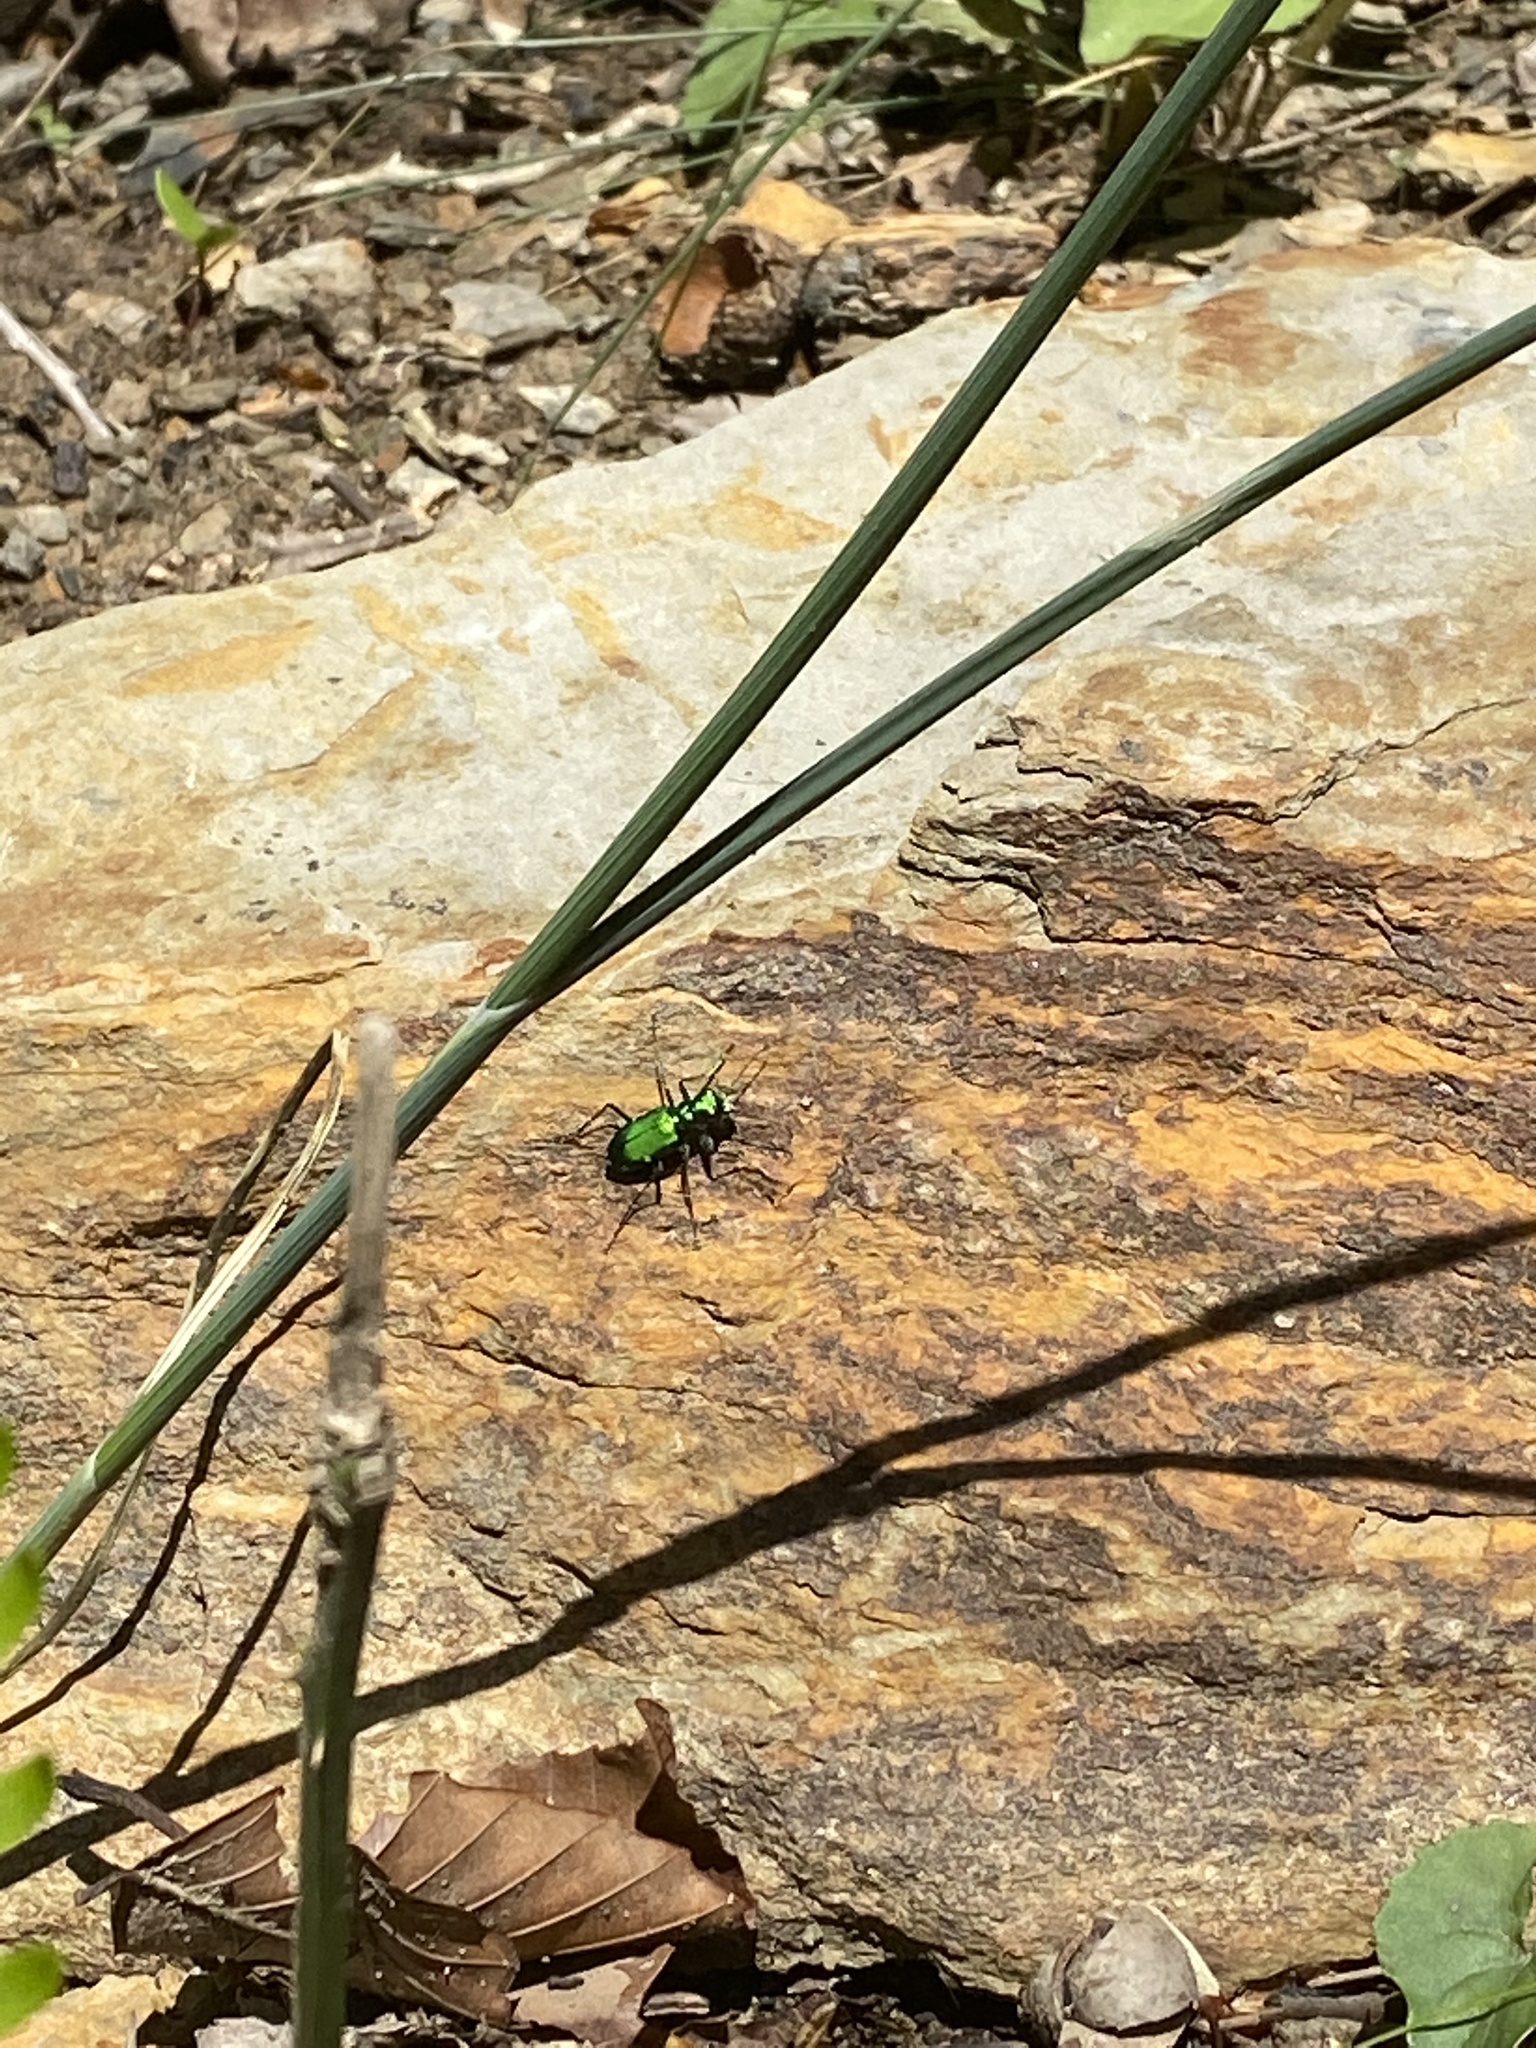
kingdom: Animalia
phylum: Arthropoda
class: Insecta
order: Coleoptera
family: Carabidae
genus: Cicindela
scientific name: Cicindela sexguttata
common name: Six-spotted tiger beetle
